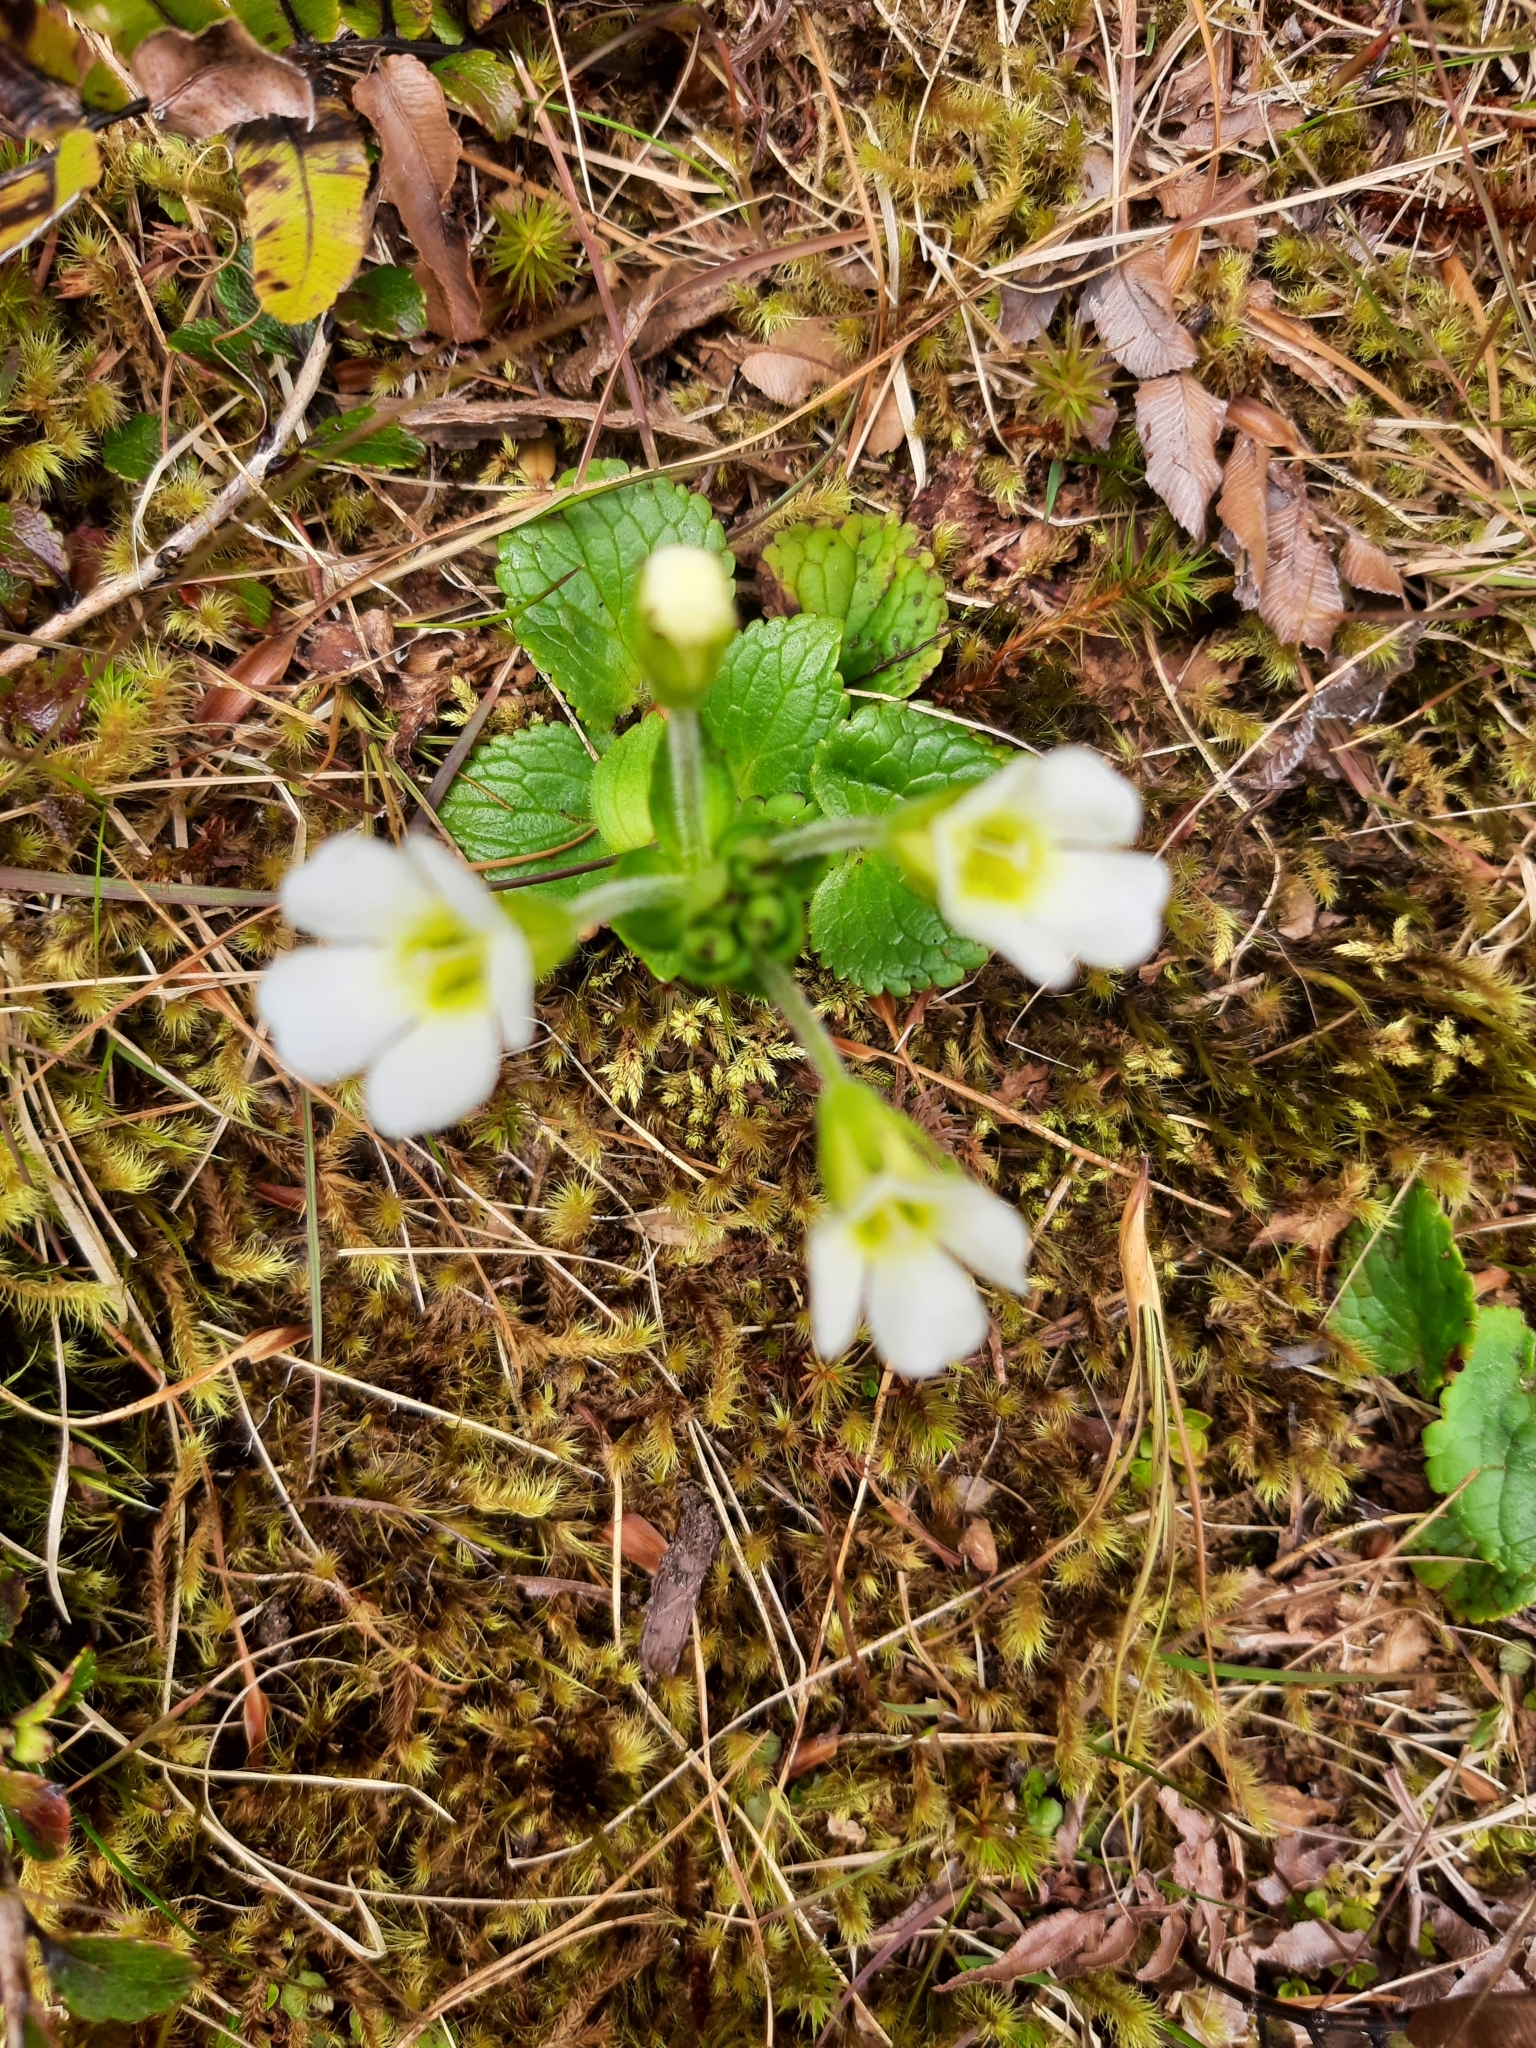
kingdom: Plantae
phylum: Tracheophyta
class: Magnoliopsida
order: Lamiales
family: Plantaginaceae
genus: Ourisia
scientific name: Ourisia macrophylla
